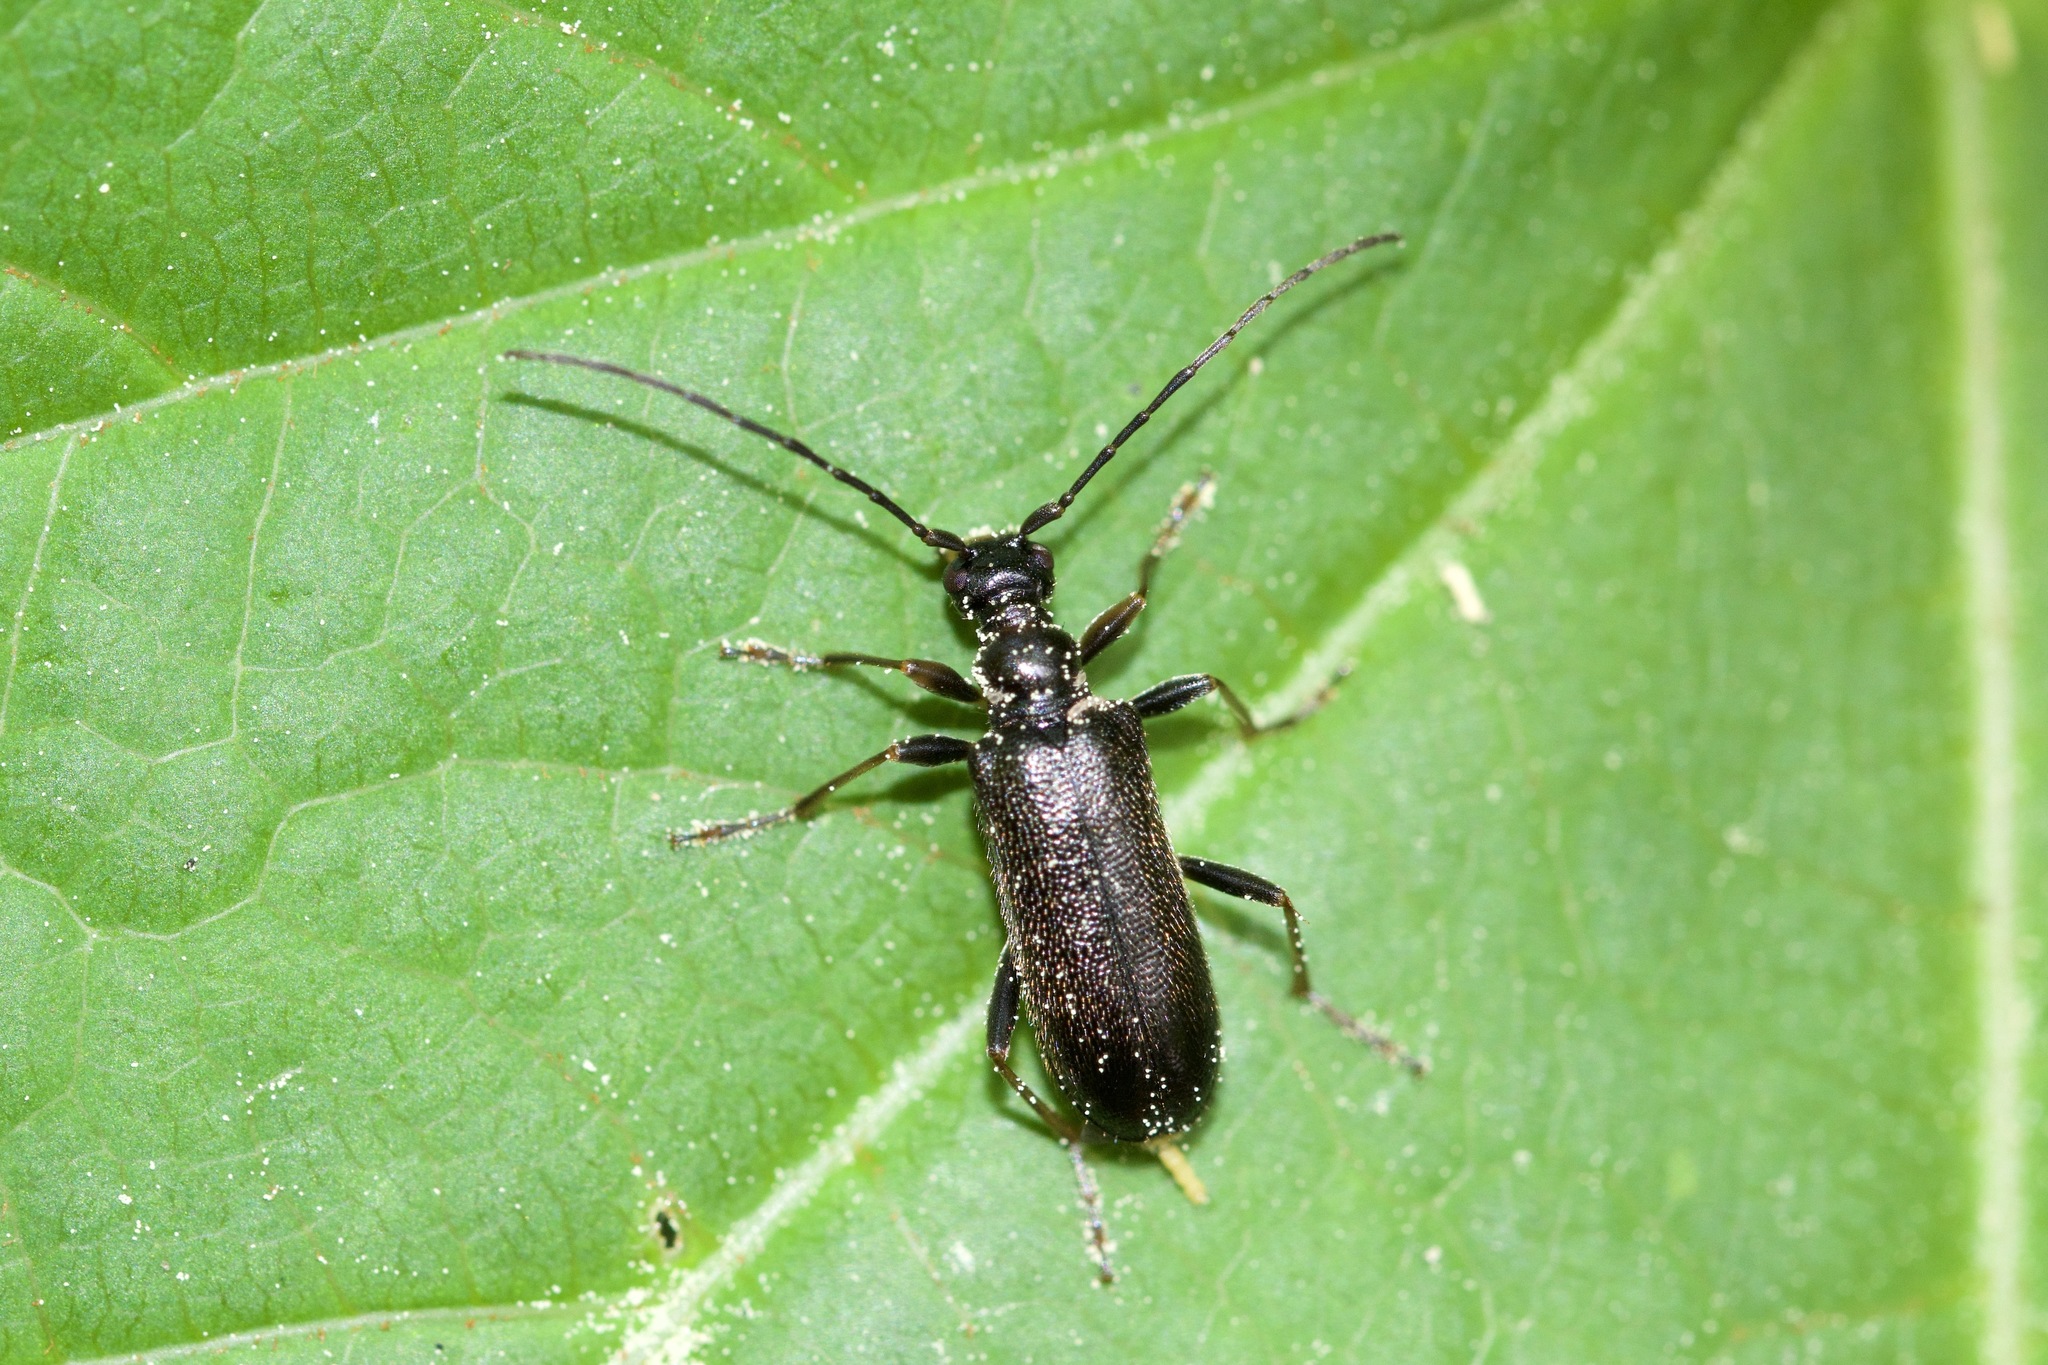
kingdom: Animalia
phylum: Arthropoda
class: Insecta
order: Coleoptera
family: Cerambycidae
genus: Idiopidonia
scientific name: Idiopidonia pedalis
